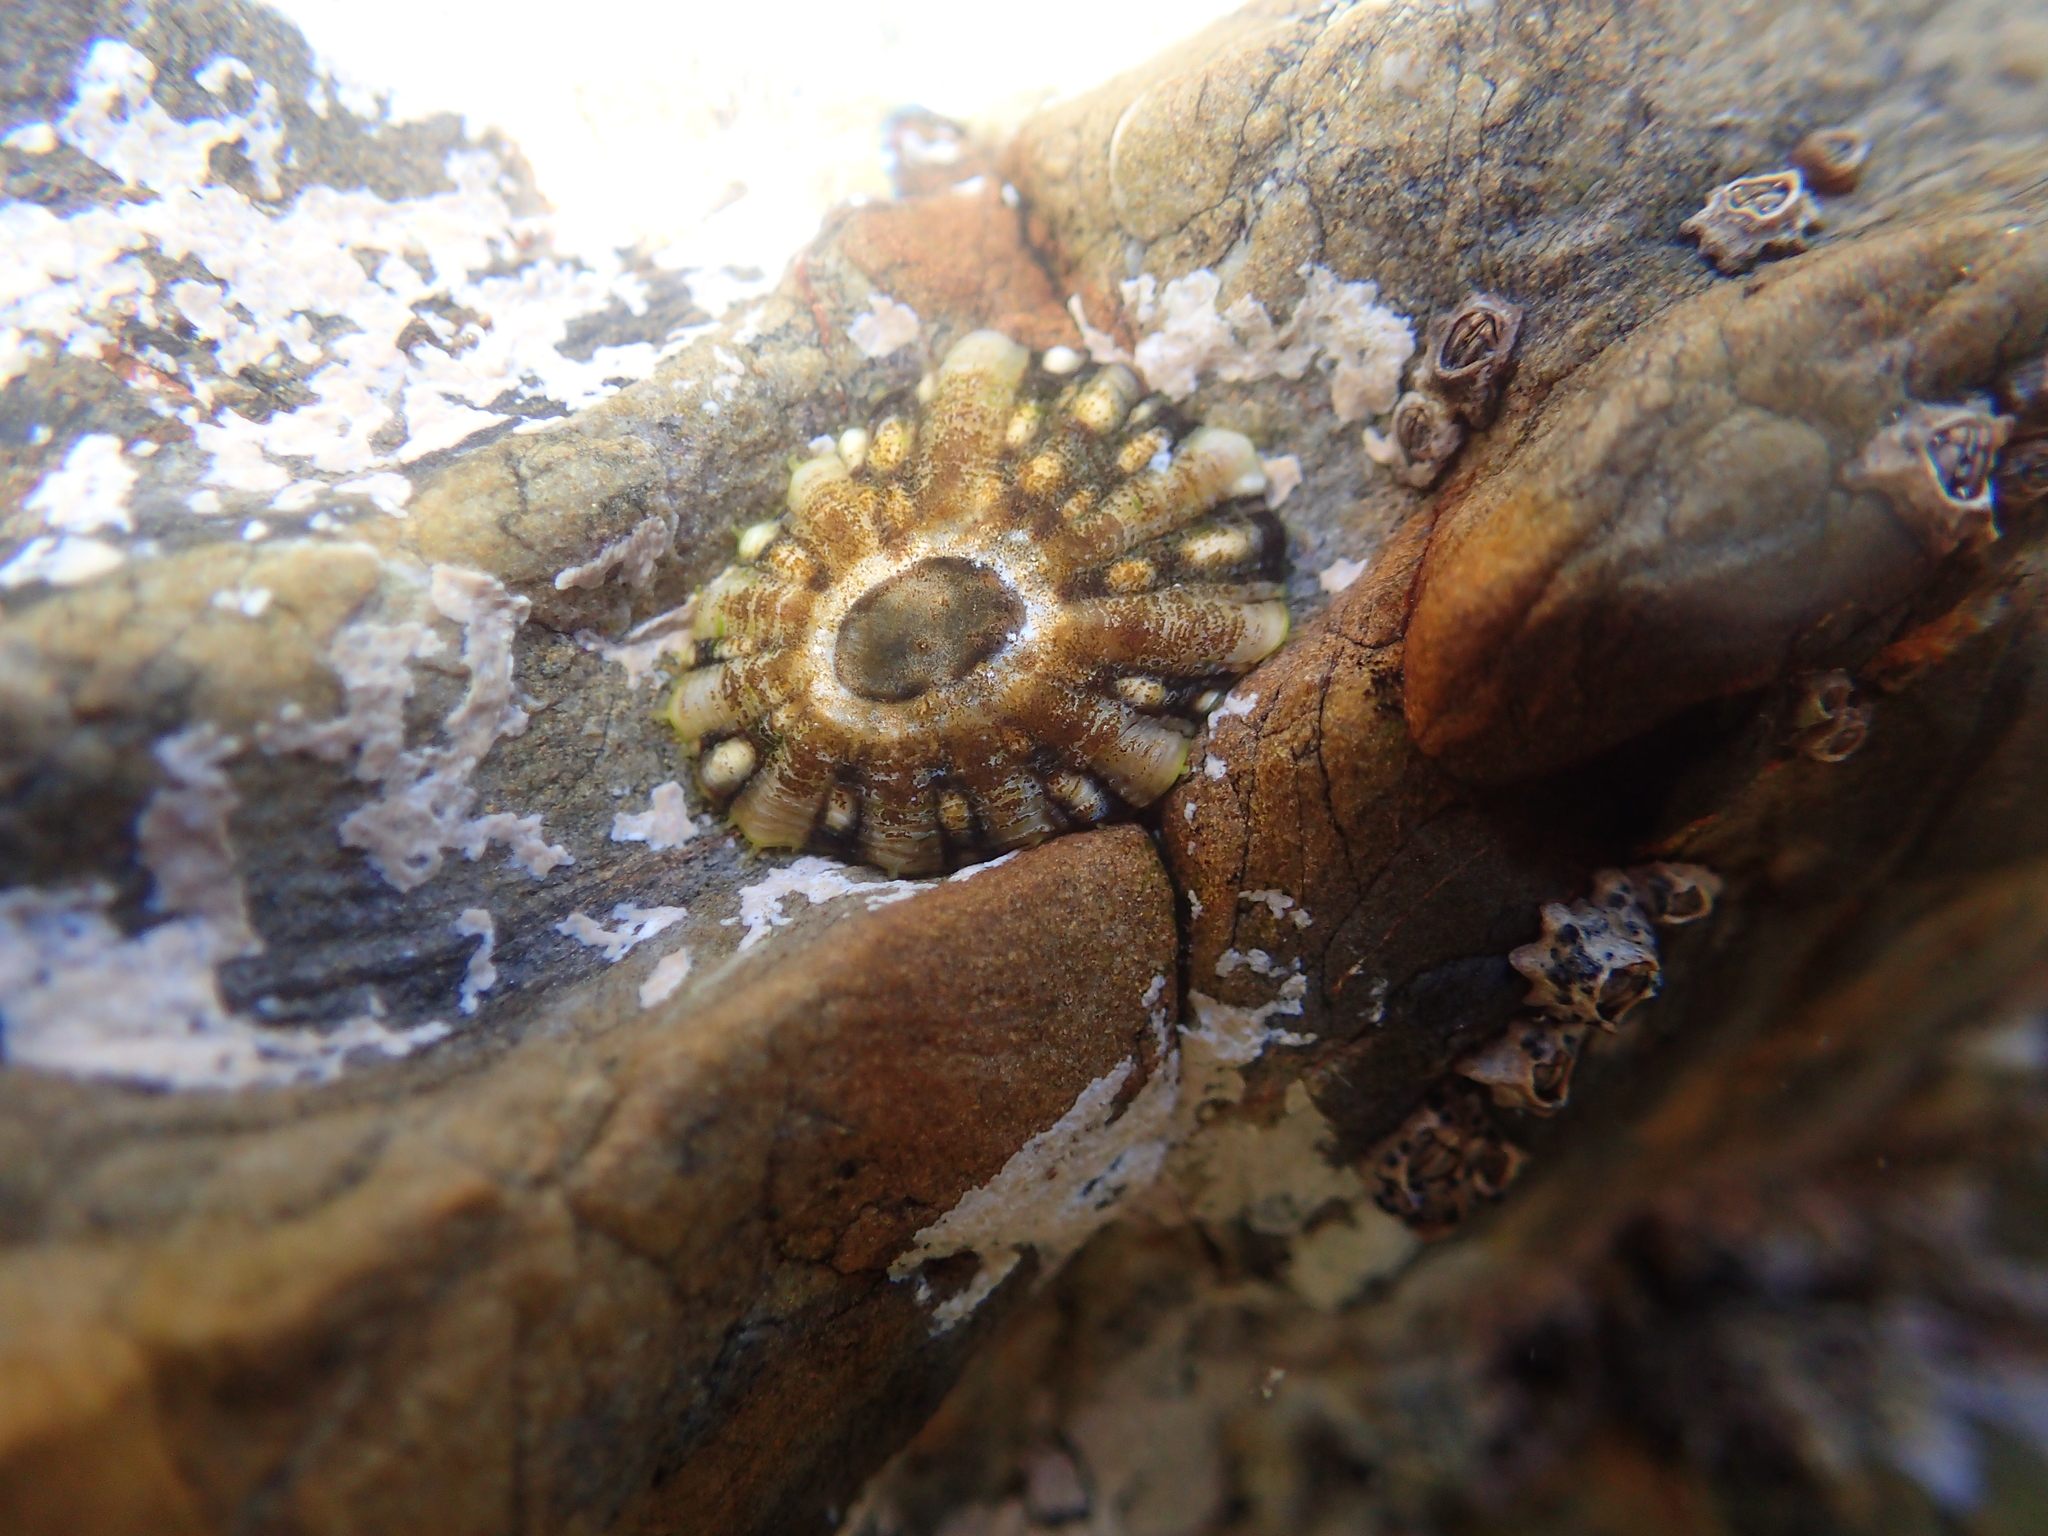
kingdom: Animalia
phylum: Mollusca
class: Gastropoda
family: Nacellidae
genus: Cellana
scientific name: Cellana ornata
